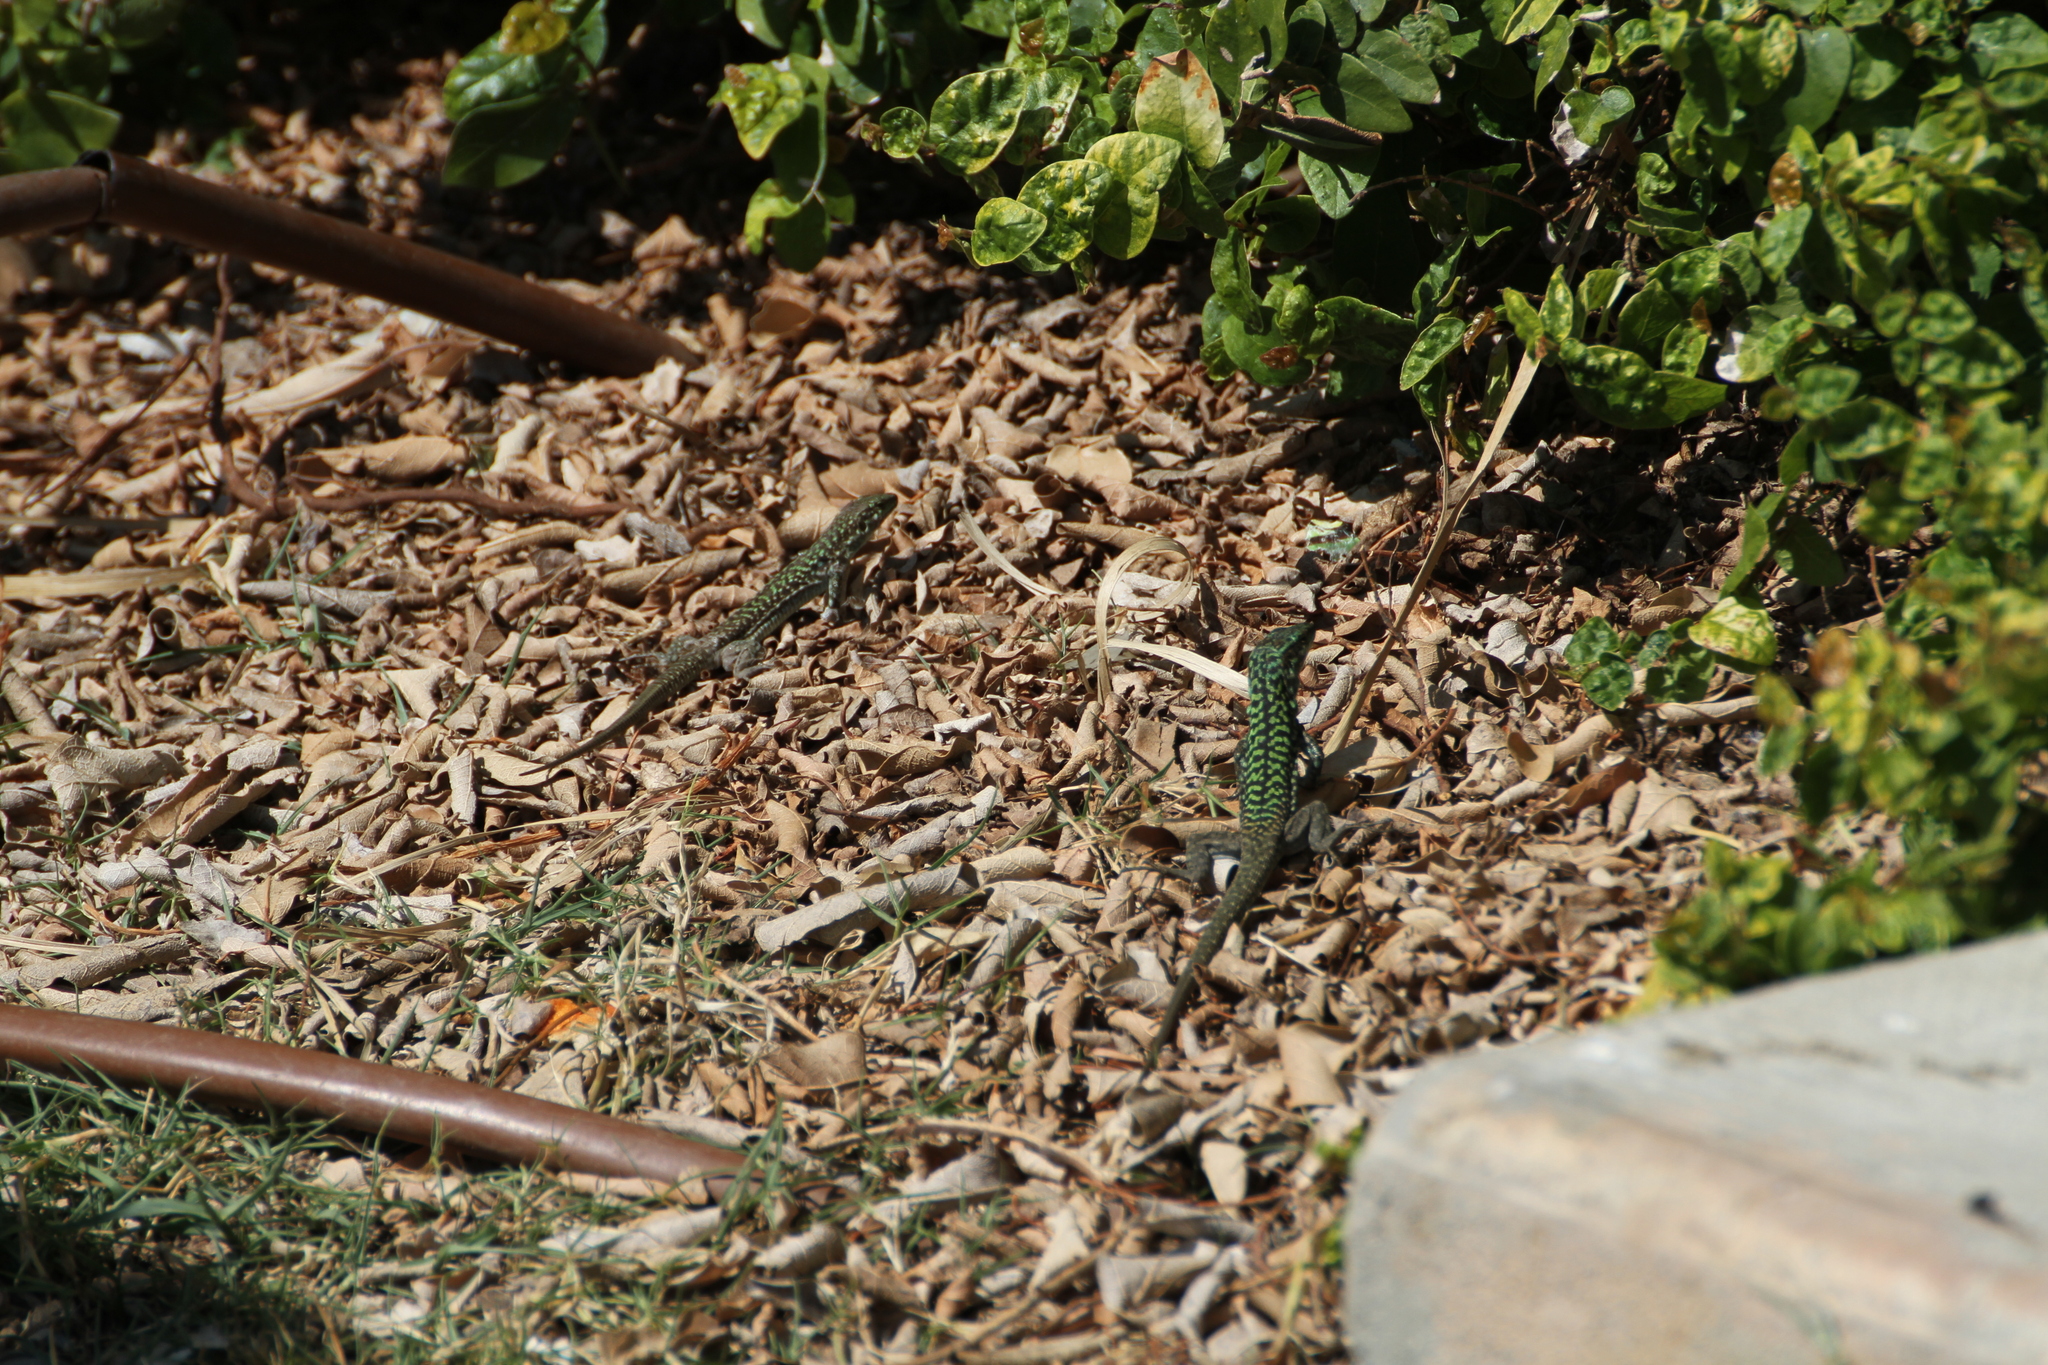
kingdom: Animalia
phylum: Chordata
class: Squamata
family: Lacertidae
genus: Podarcis
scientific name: Podarcis siculus
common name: Italian wall lizard
